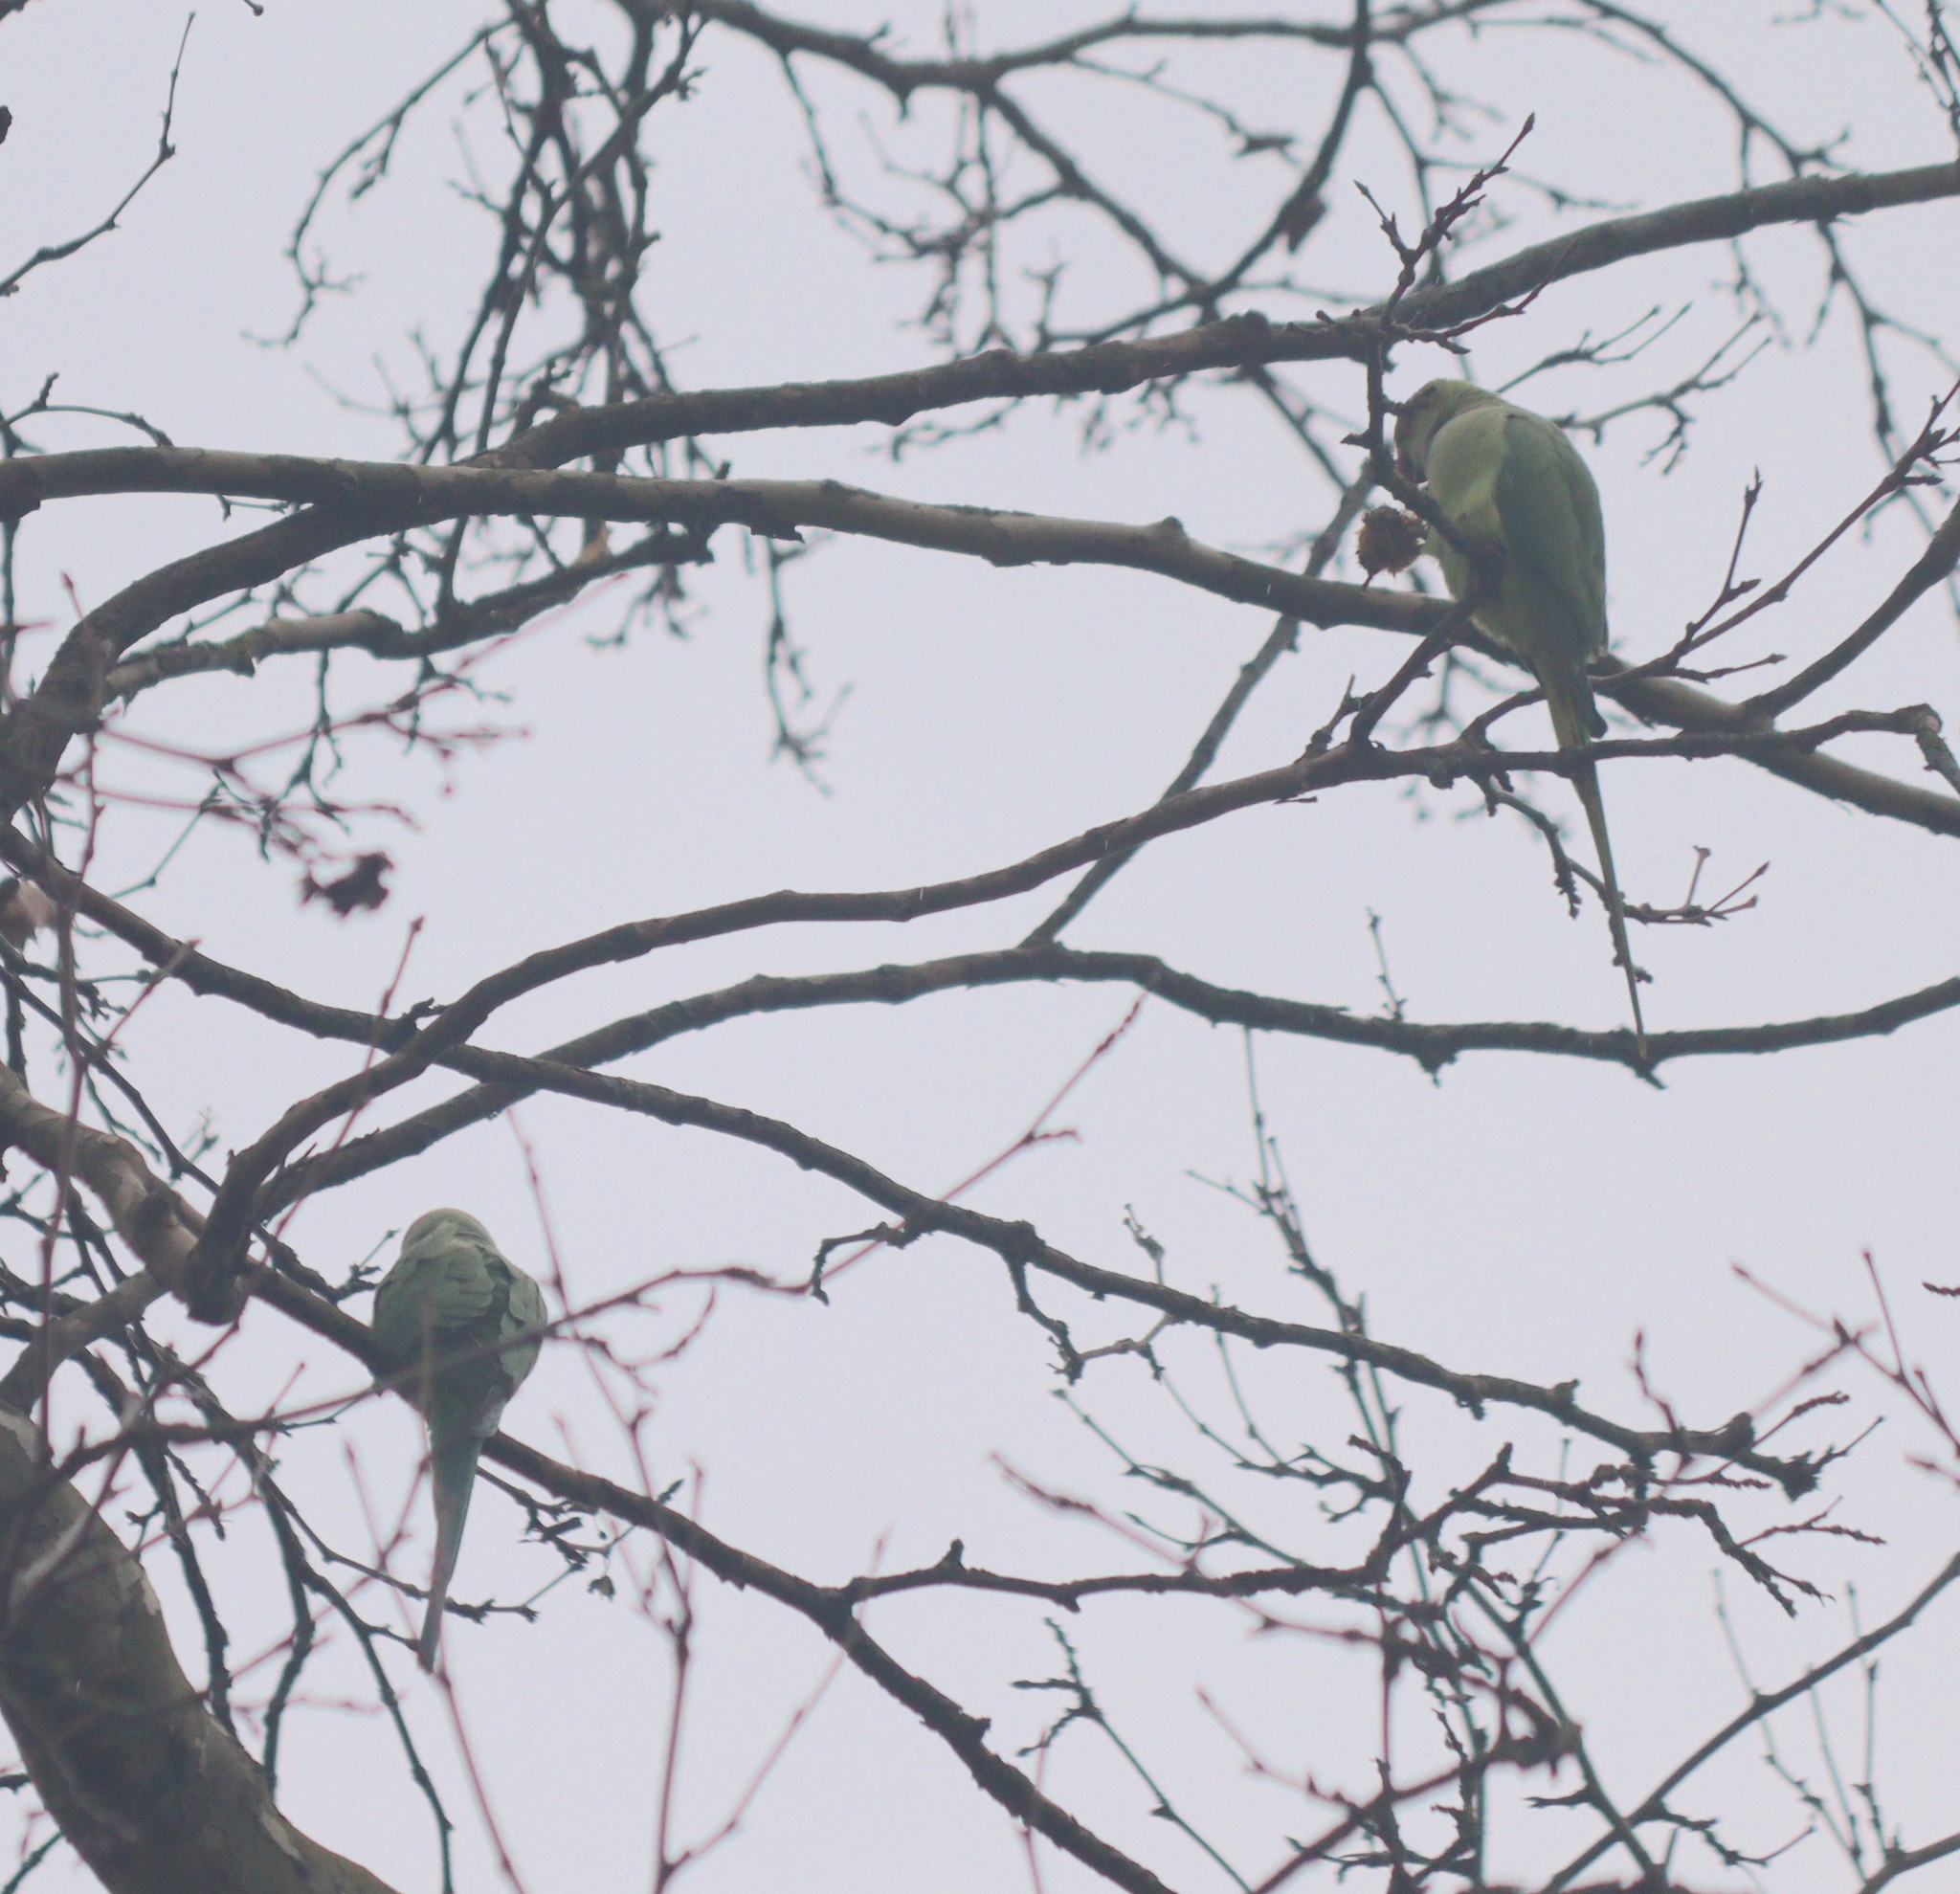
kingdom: Animalia
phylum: Chordata
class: Aves
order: Psittaciformes
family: Psittacidae
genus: Psittacula
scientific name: Psittacula krameri
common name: Rose-ringed parakeet
